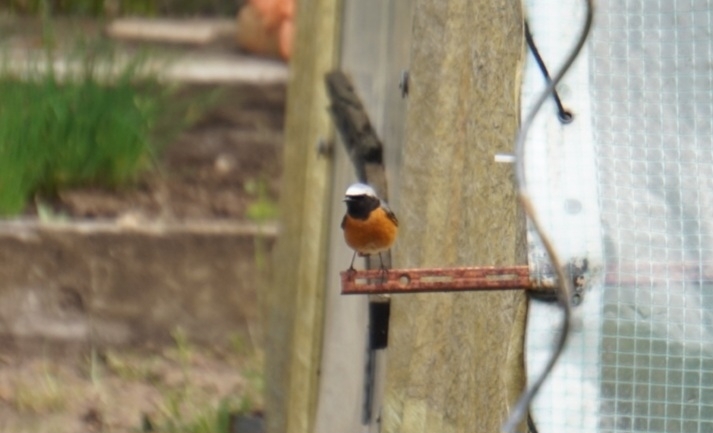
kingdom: Animalia
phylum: Chordata
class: Aves
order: Passeriformes
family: Muscicapidae
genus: Phoenicurus
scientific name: Phoenicurus phoenicurus
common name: Common redstart
